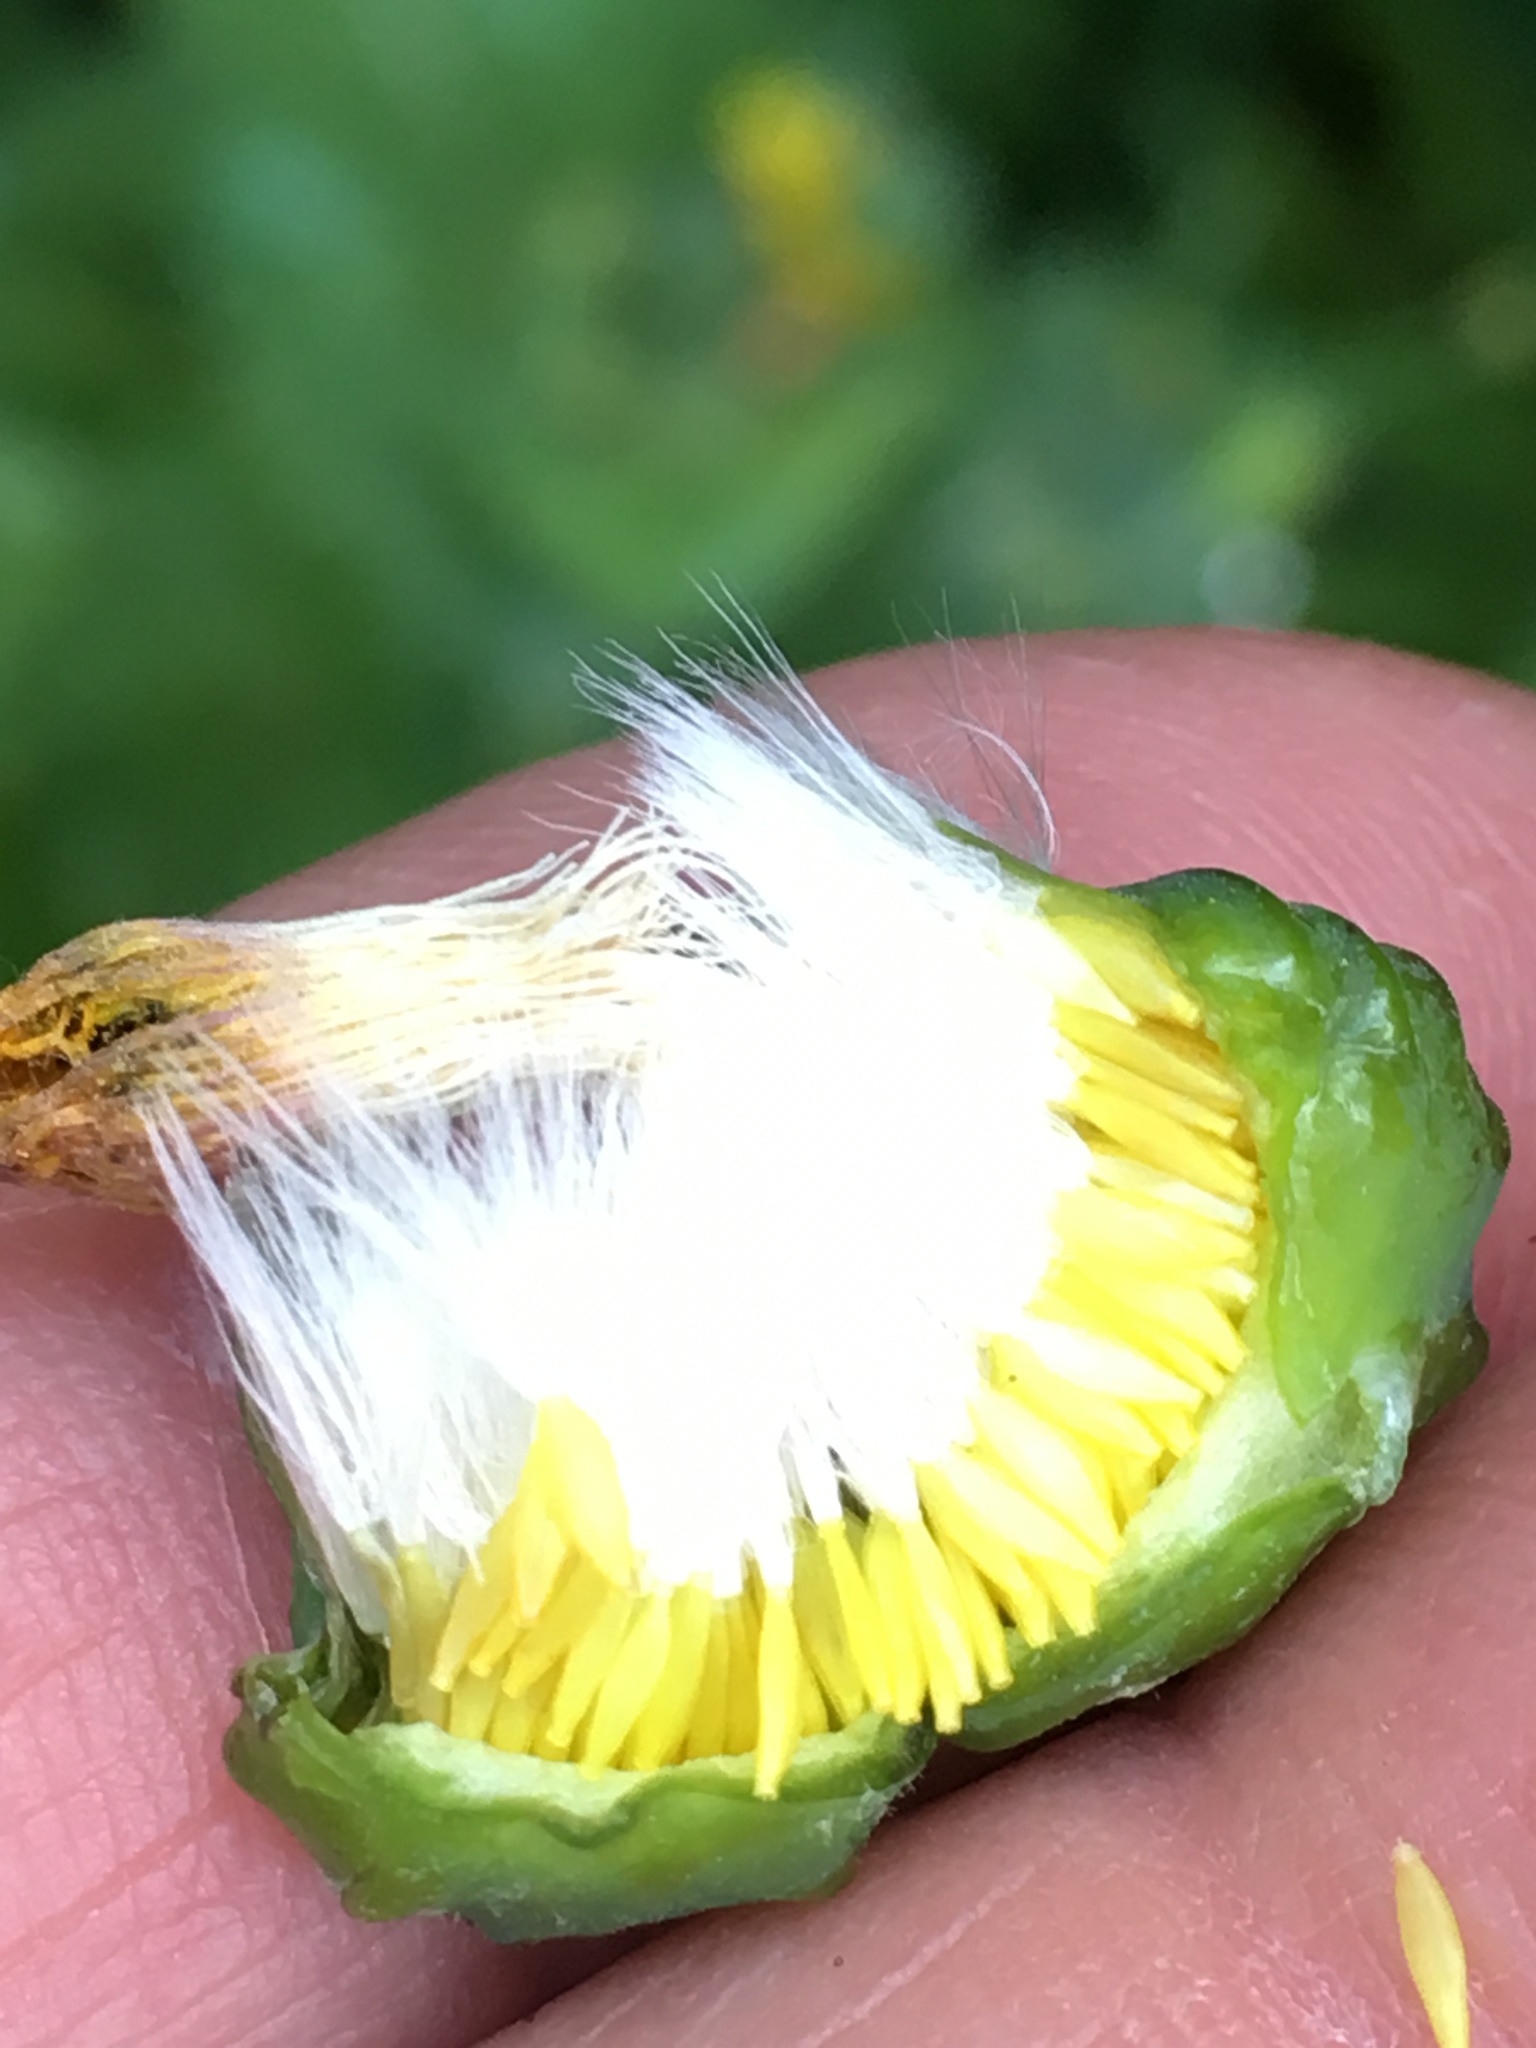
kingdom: Plantae
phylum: Tracheophyta
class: Magnoliopsida
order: Asterales
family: Asteraceae
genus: Sonchus
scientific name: Sonchus oleraceus
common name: Common sowthistle
